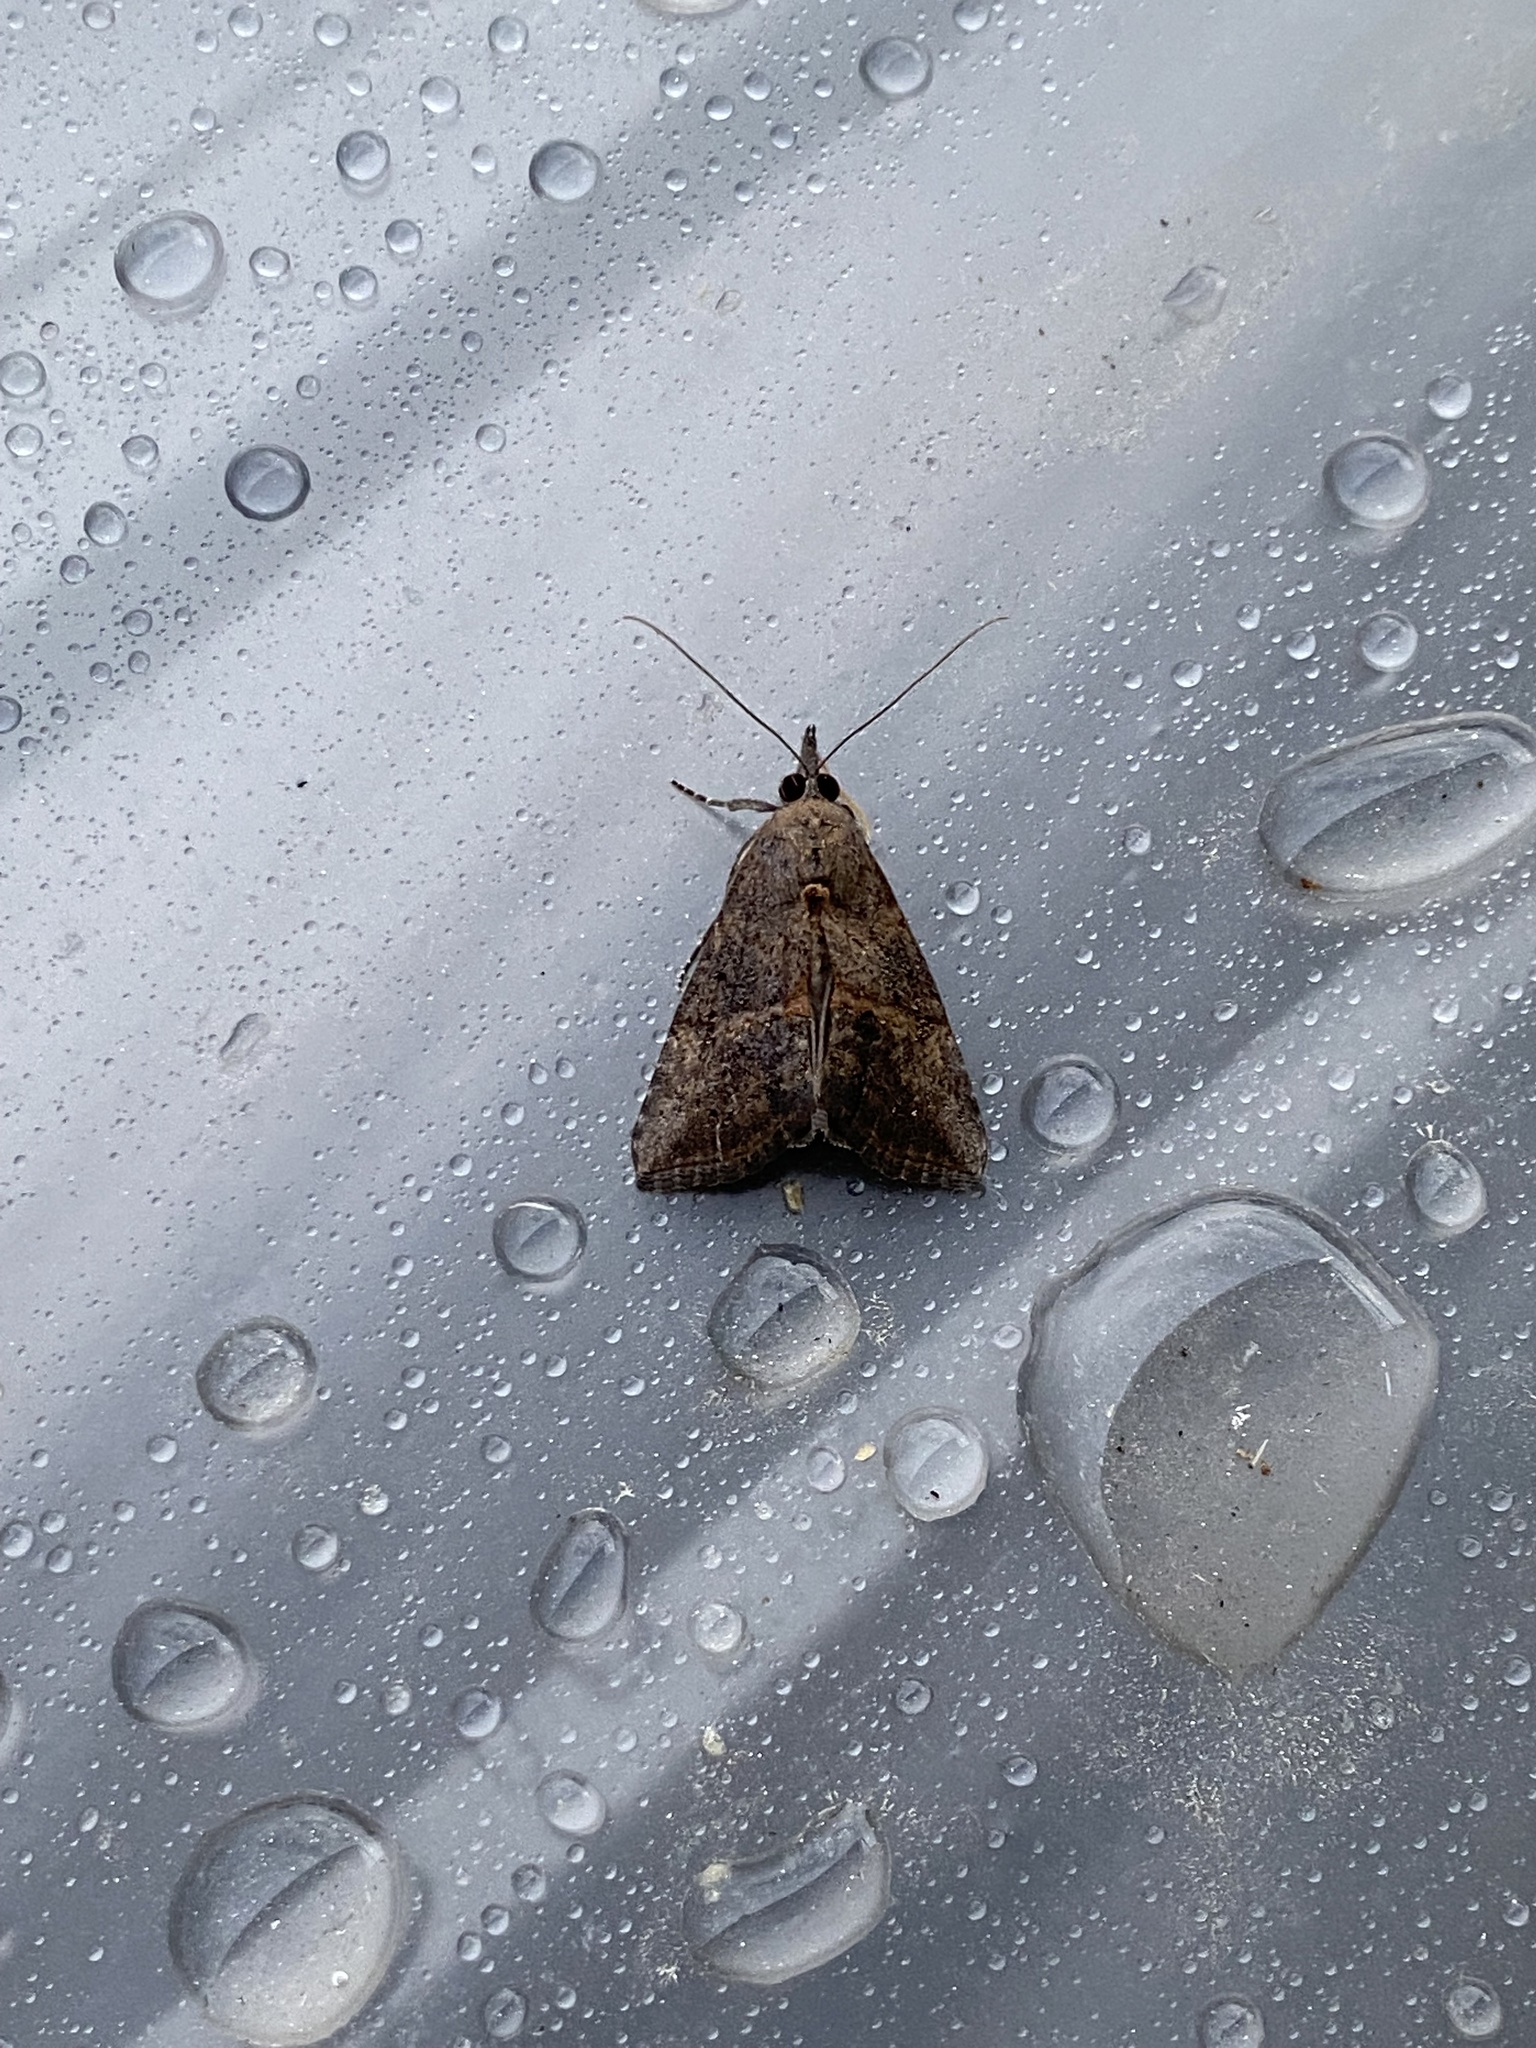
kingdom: Animalia
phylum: Arthropoda
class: Insecta
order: Lepidoptera
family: Erebidae
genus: Hypena
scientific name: Hypena scabra
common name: Green cloverworm
